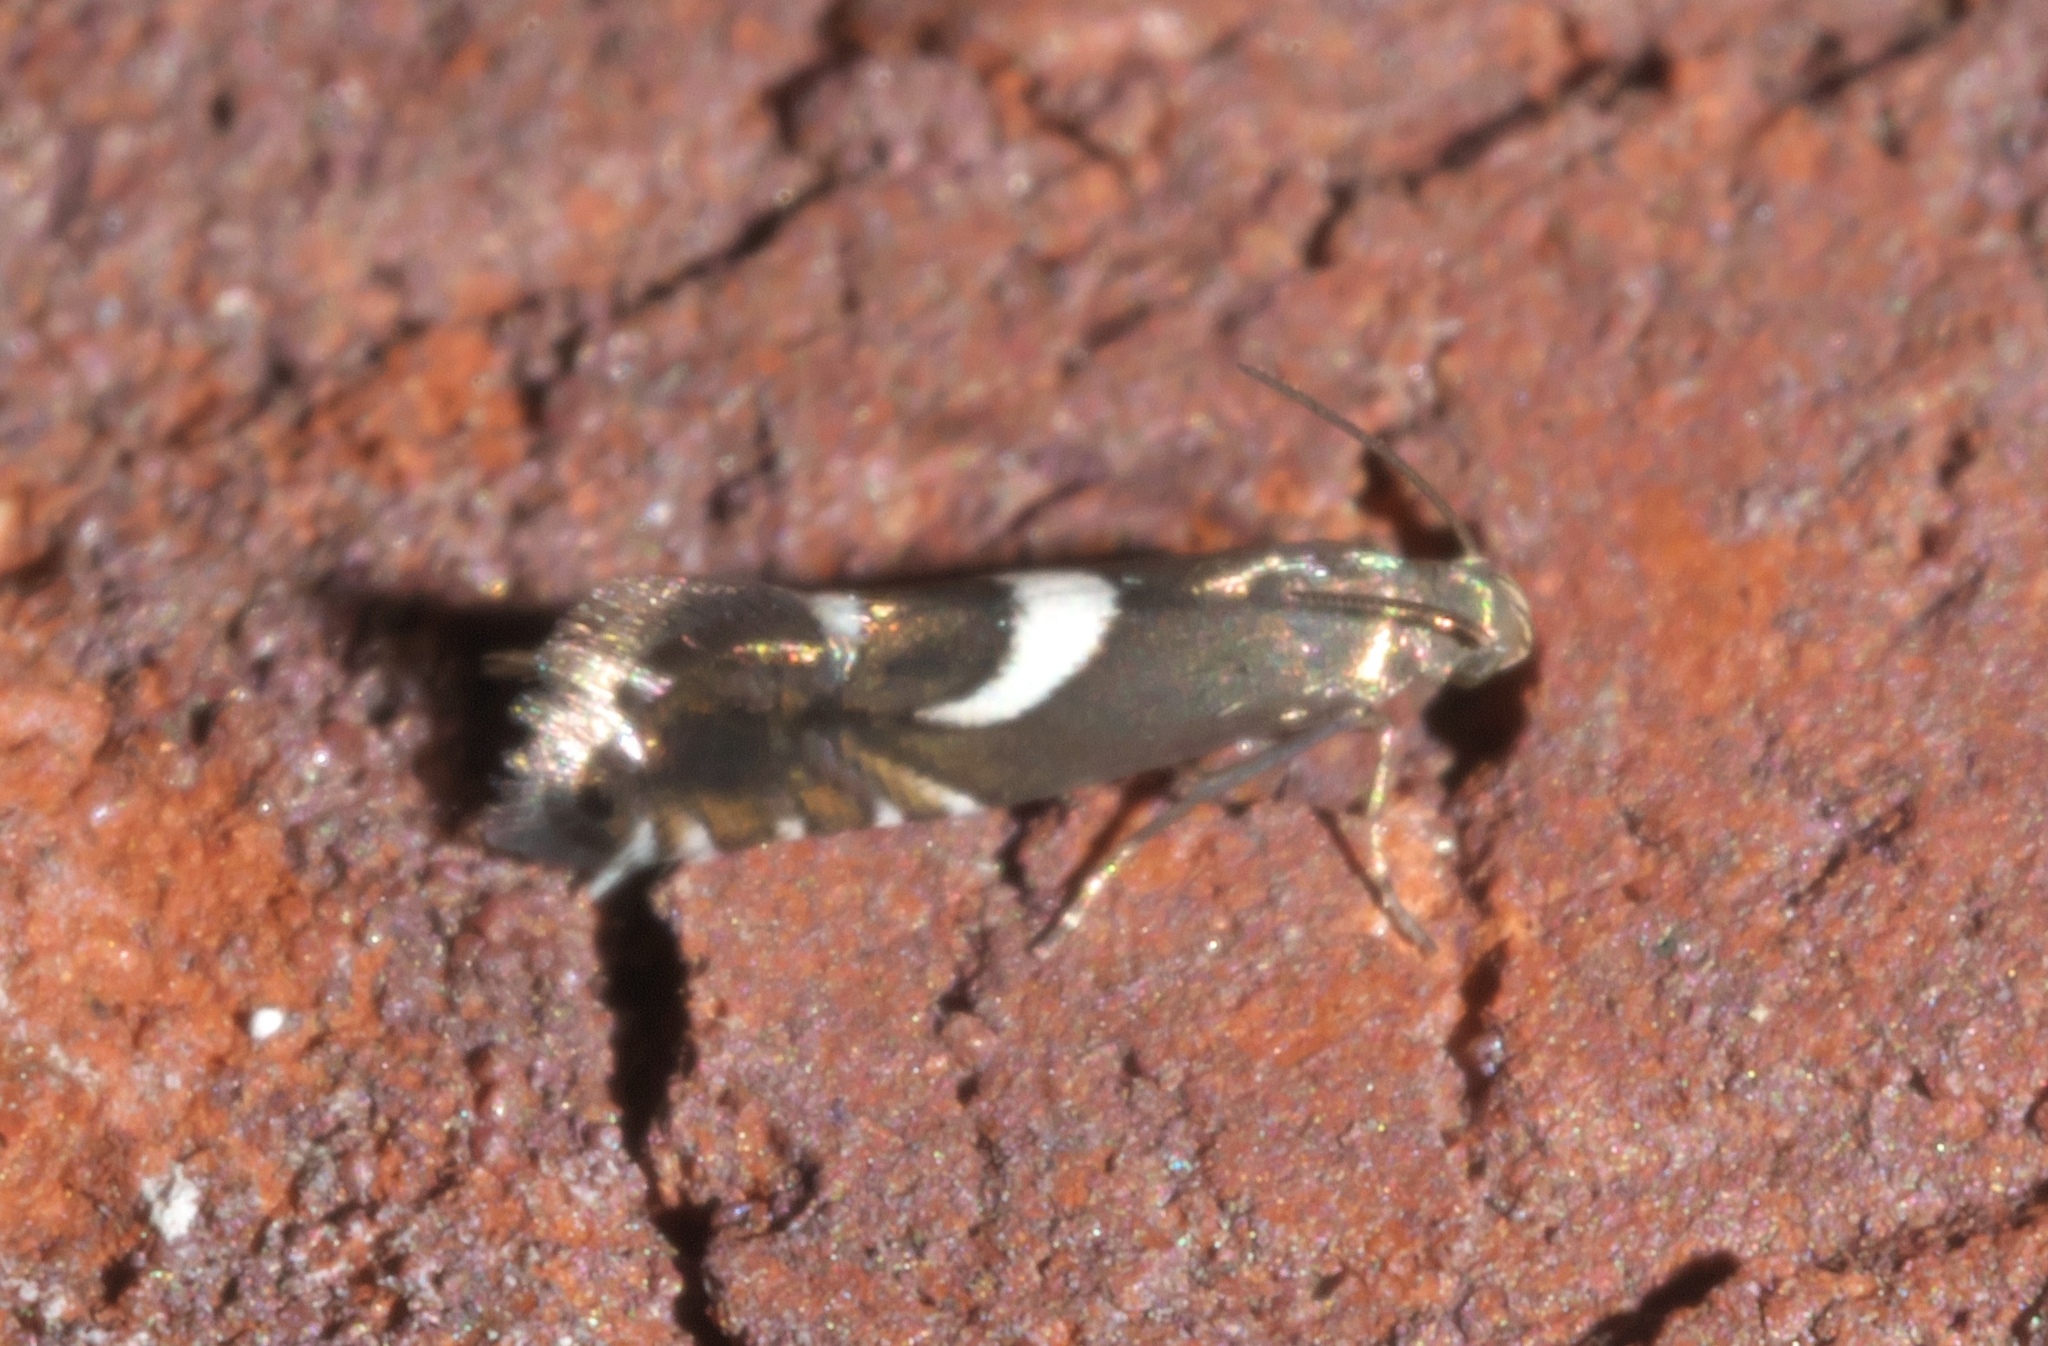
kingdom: Animalia
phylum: Arthropoda
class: Insecta
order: Lepidoptera
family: Glyphipterigidae
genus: Glyphipterix
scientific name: Glyphipterix Diploschizia impigritella
